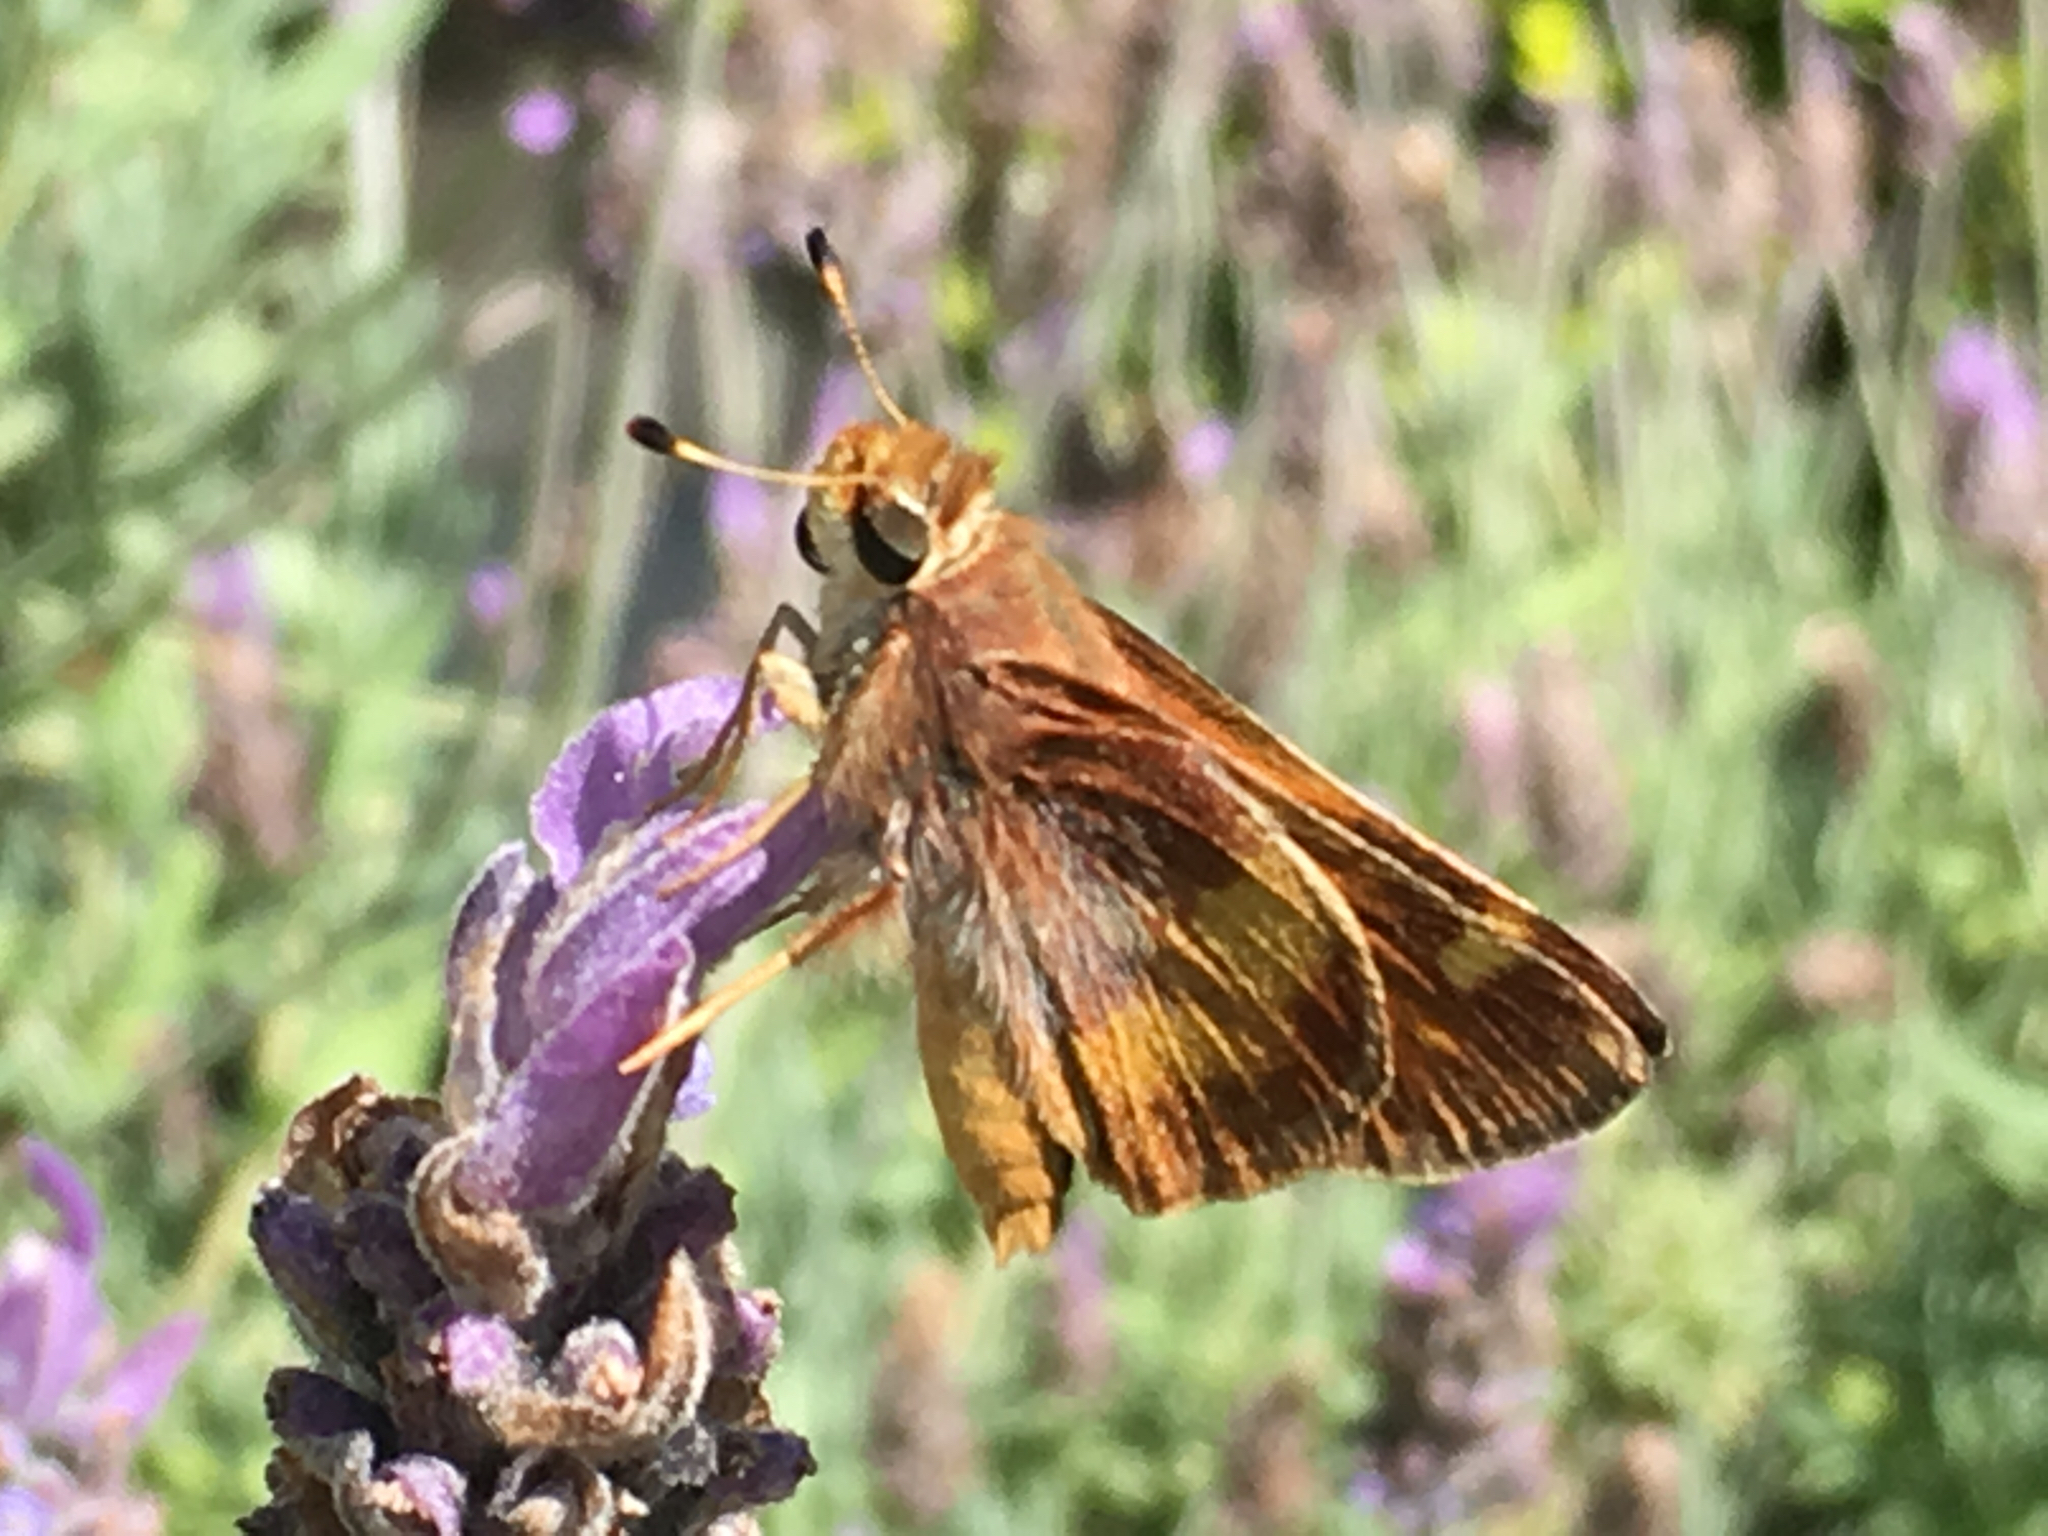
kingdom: Animalia
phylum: Arthropoda
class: Insecta
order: Lepidoptera
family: Hesperiidae
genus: Lon
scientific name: Lon melane
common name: Umber skipper
